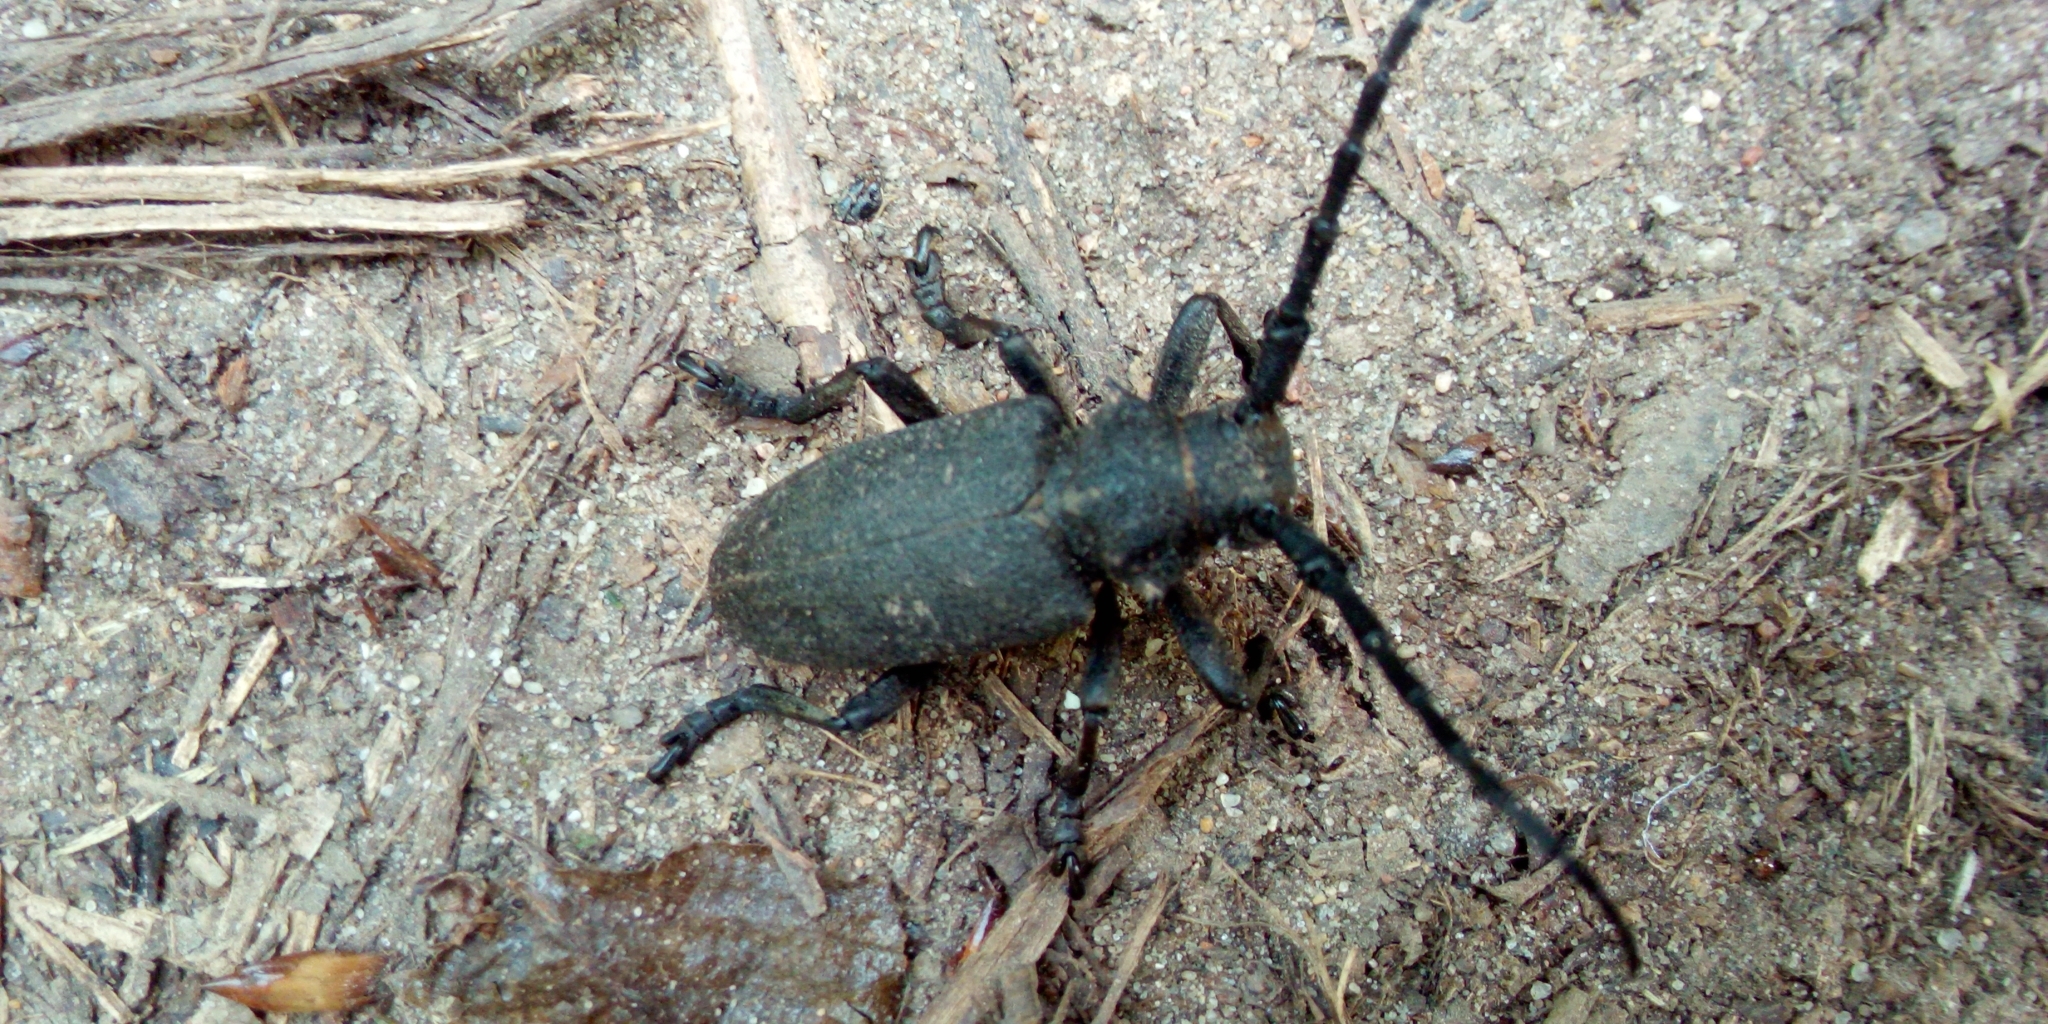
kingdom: Animalia
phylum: Arthropoda
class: Insecta
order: Coleoptera
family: Cerambycidae
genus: Lamia
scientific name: Lamia textor
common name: Weaver beetle
